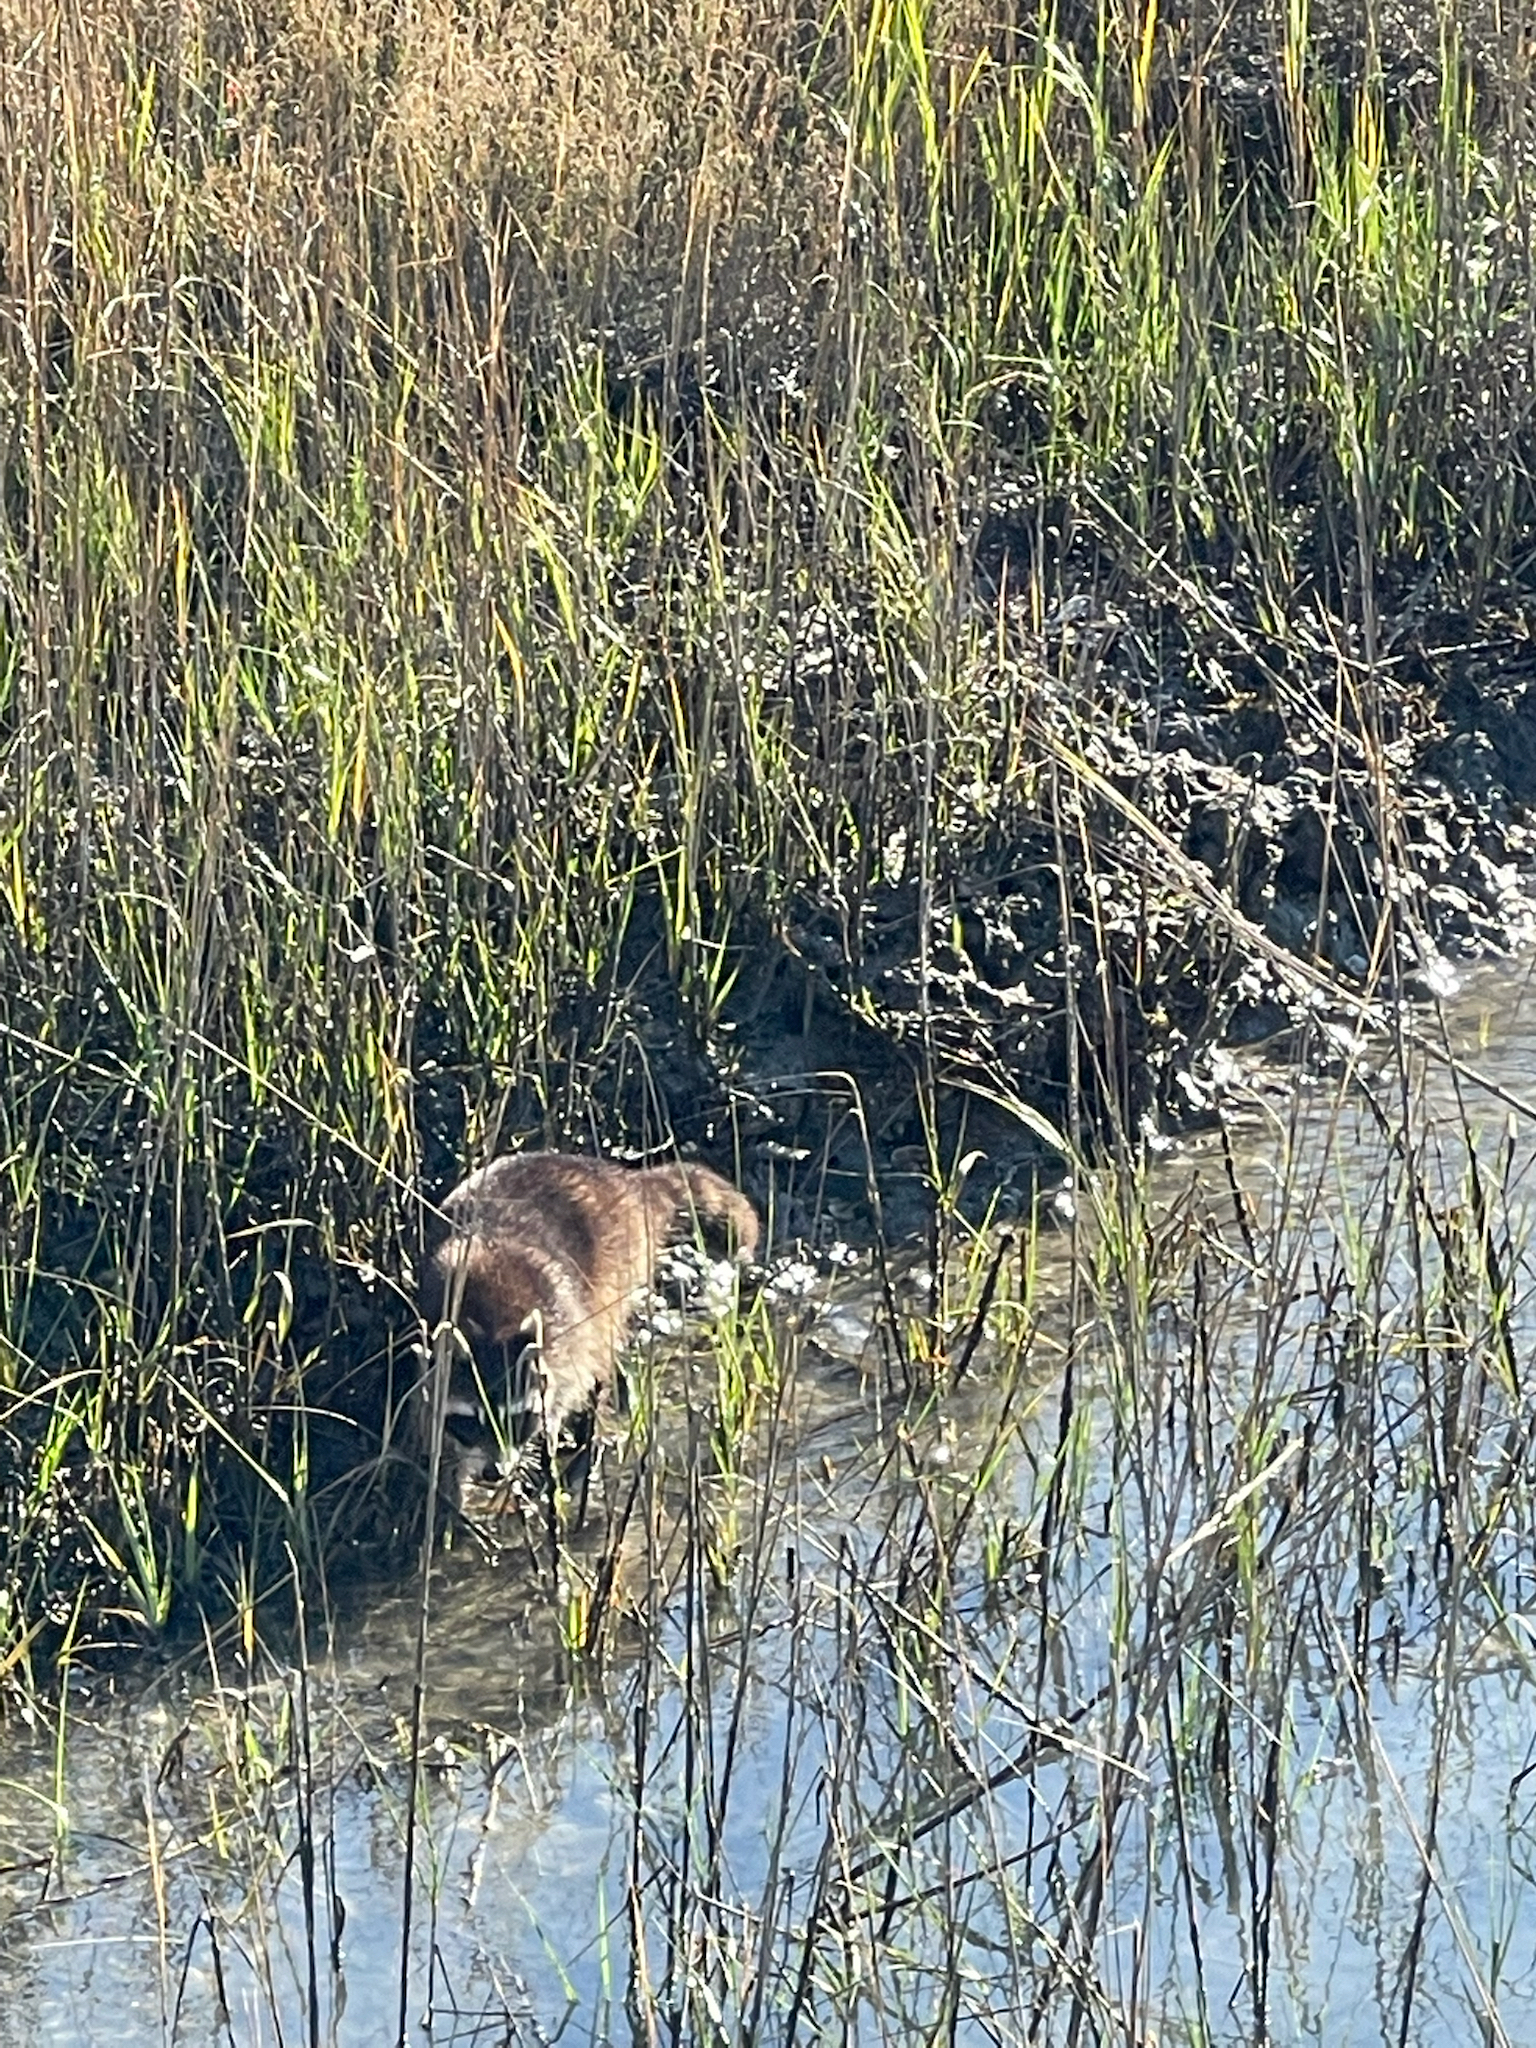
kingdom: Animalia
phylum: Chordata
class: Mammalia
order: Carnivora
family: Procyonidae
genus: Procyon
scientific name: Procyon lotor
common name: Raccoon
